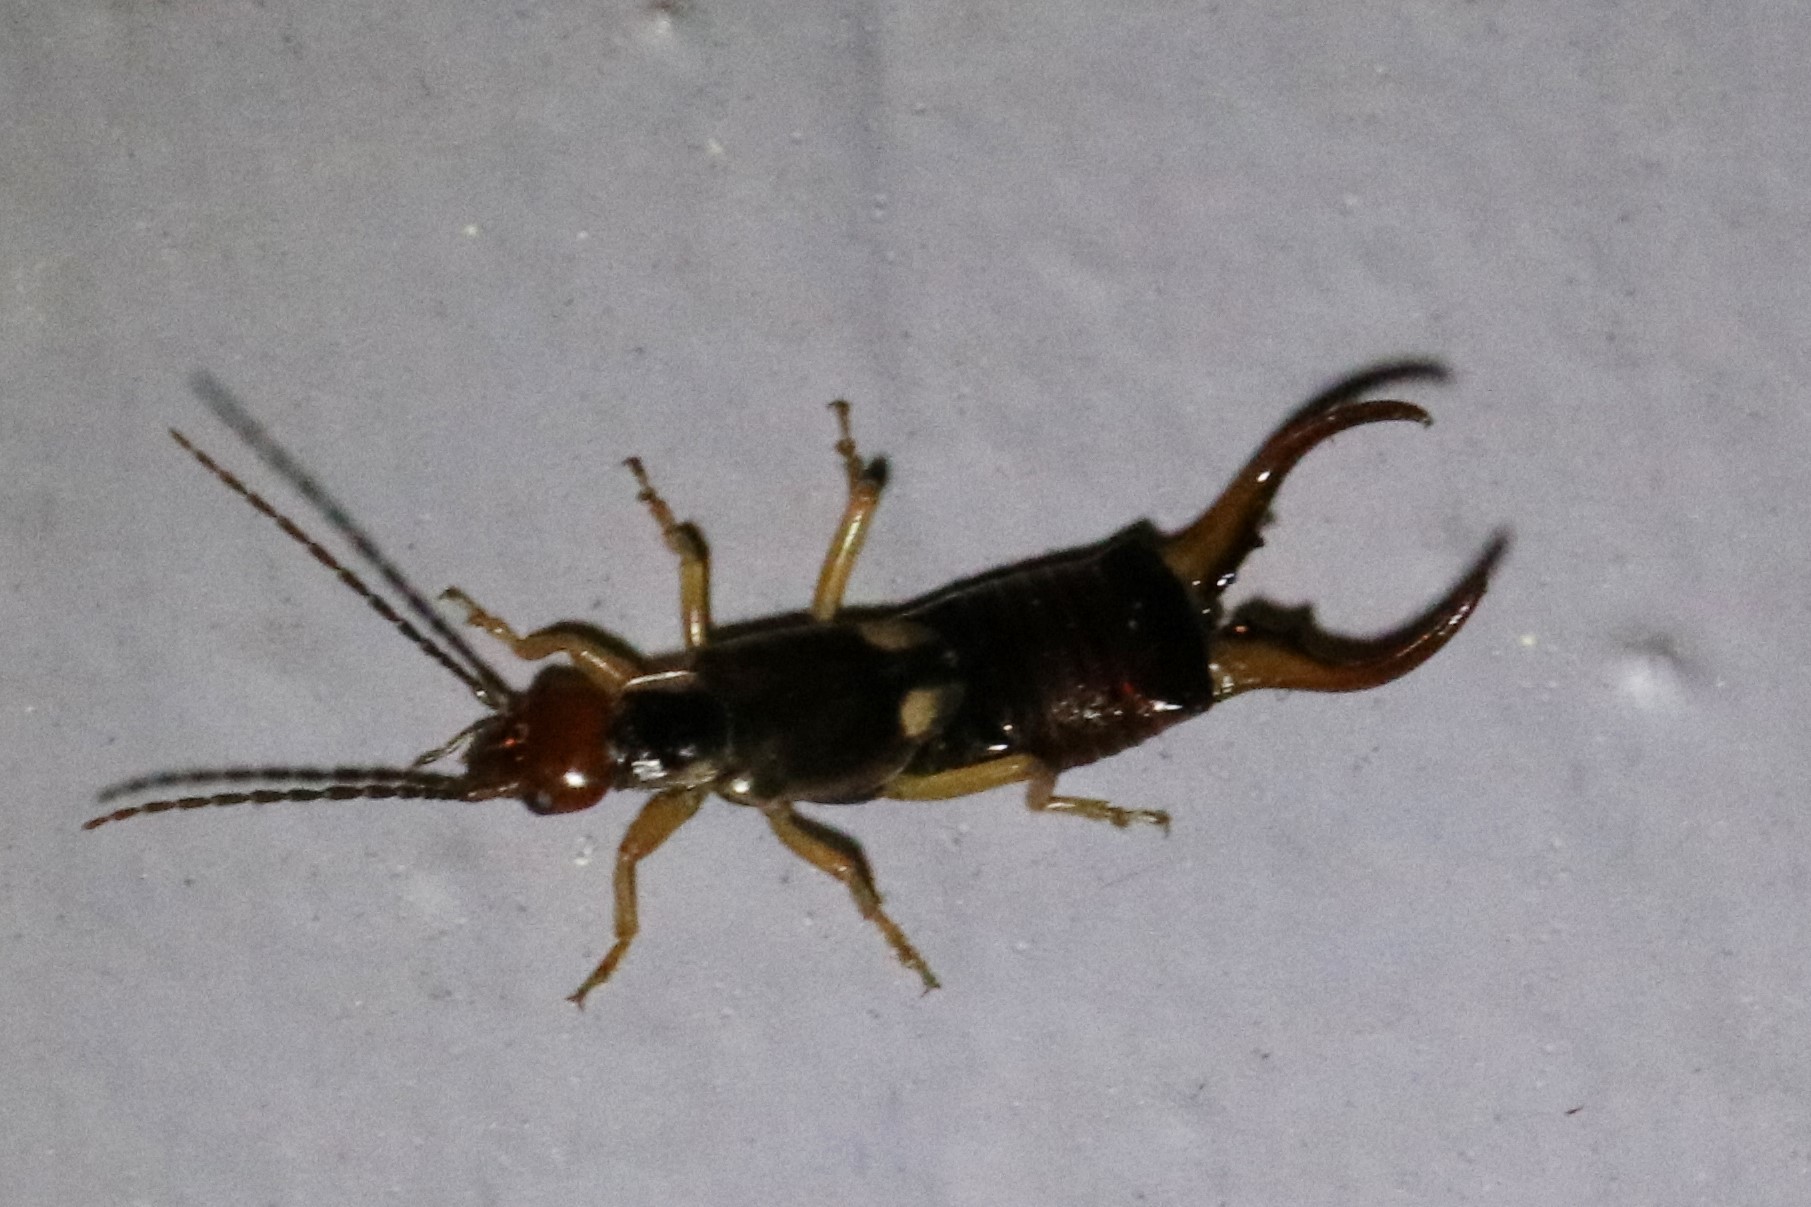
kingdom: Animalia
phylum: Arthropoda
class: Insecta
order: Dermaptera
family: Forficulidae
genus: Forficula
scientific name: Forficula
